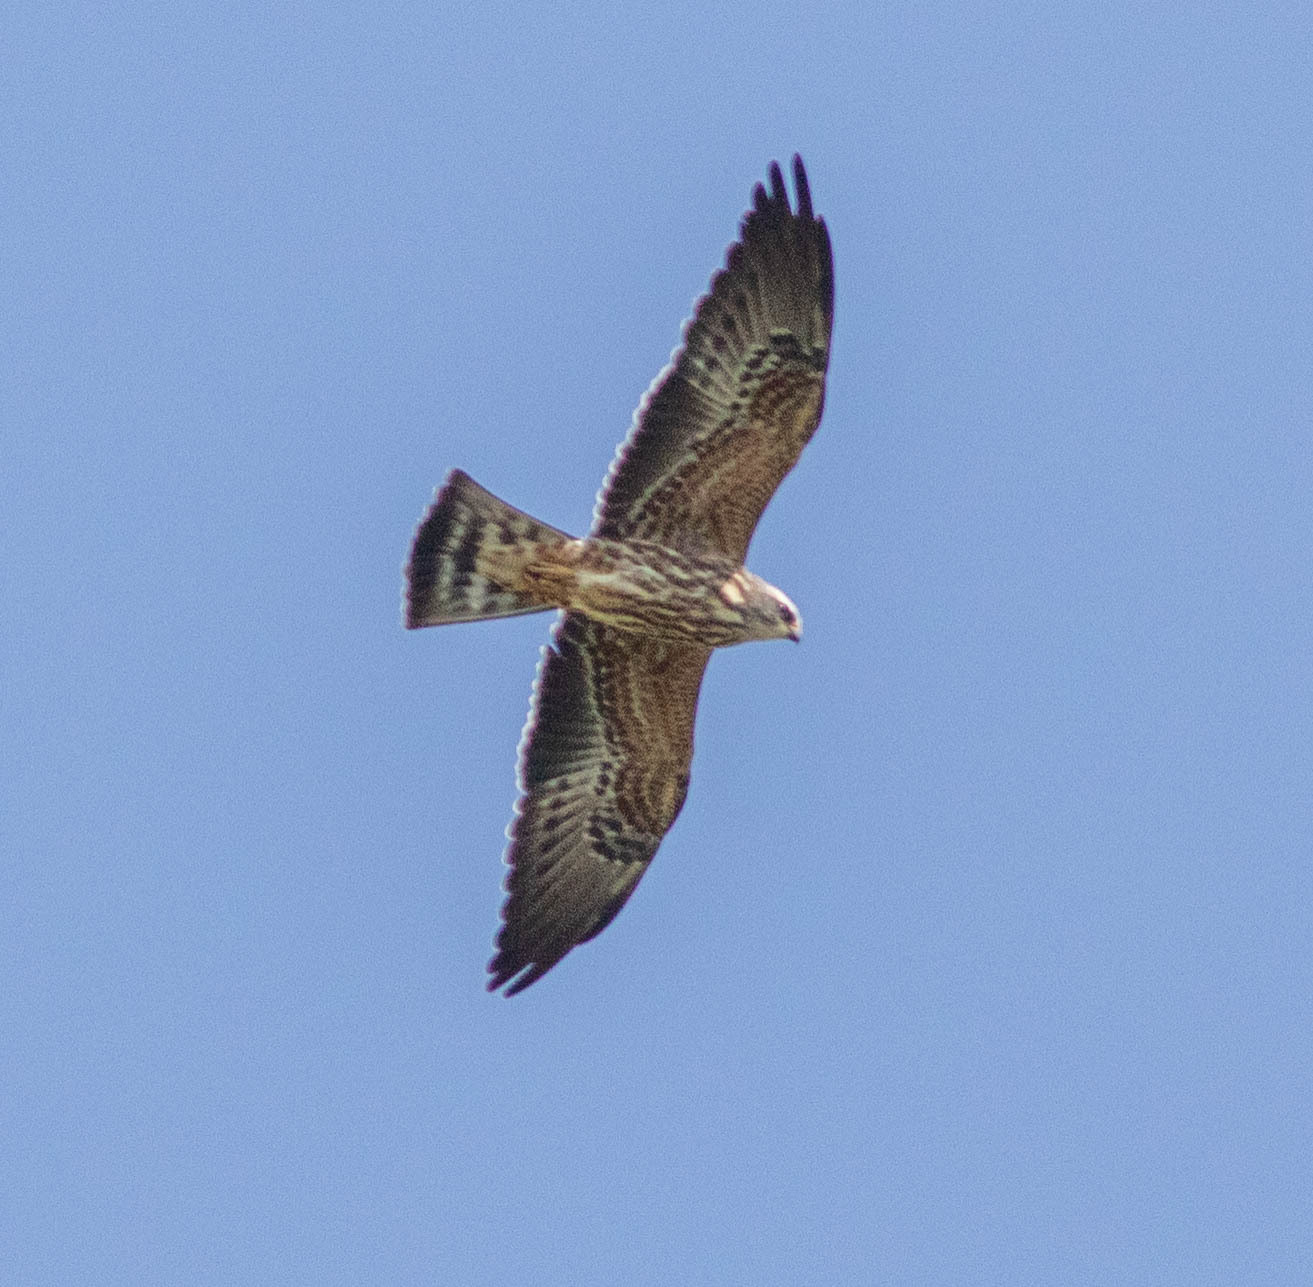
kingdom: Animalia
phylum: Chordata
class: Aves
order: Accipitriformes
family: Accipitridae
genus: Ictinia
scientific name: Ictinia mississippiensis
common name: Mississippi kite
